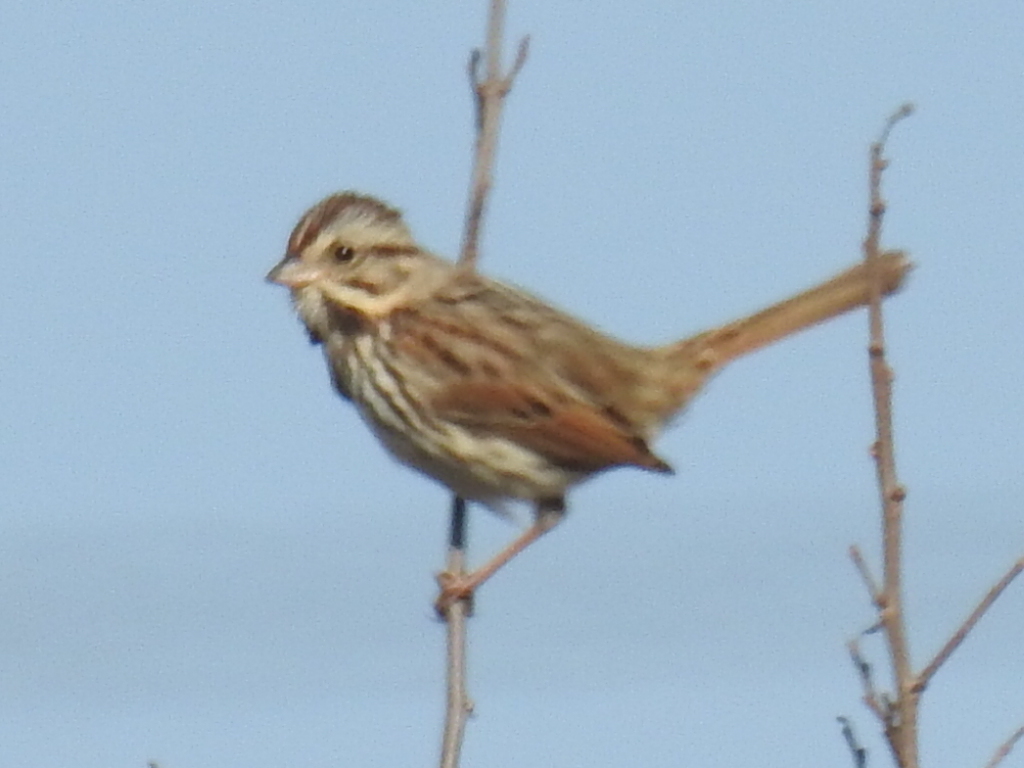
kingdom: Animalia
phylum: Chordata
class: Aves
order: Passeriformes
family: Passerellidae
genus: Melospiza
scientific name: Melospiza melodia
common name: Song sparrow
